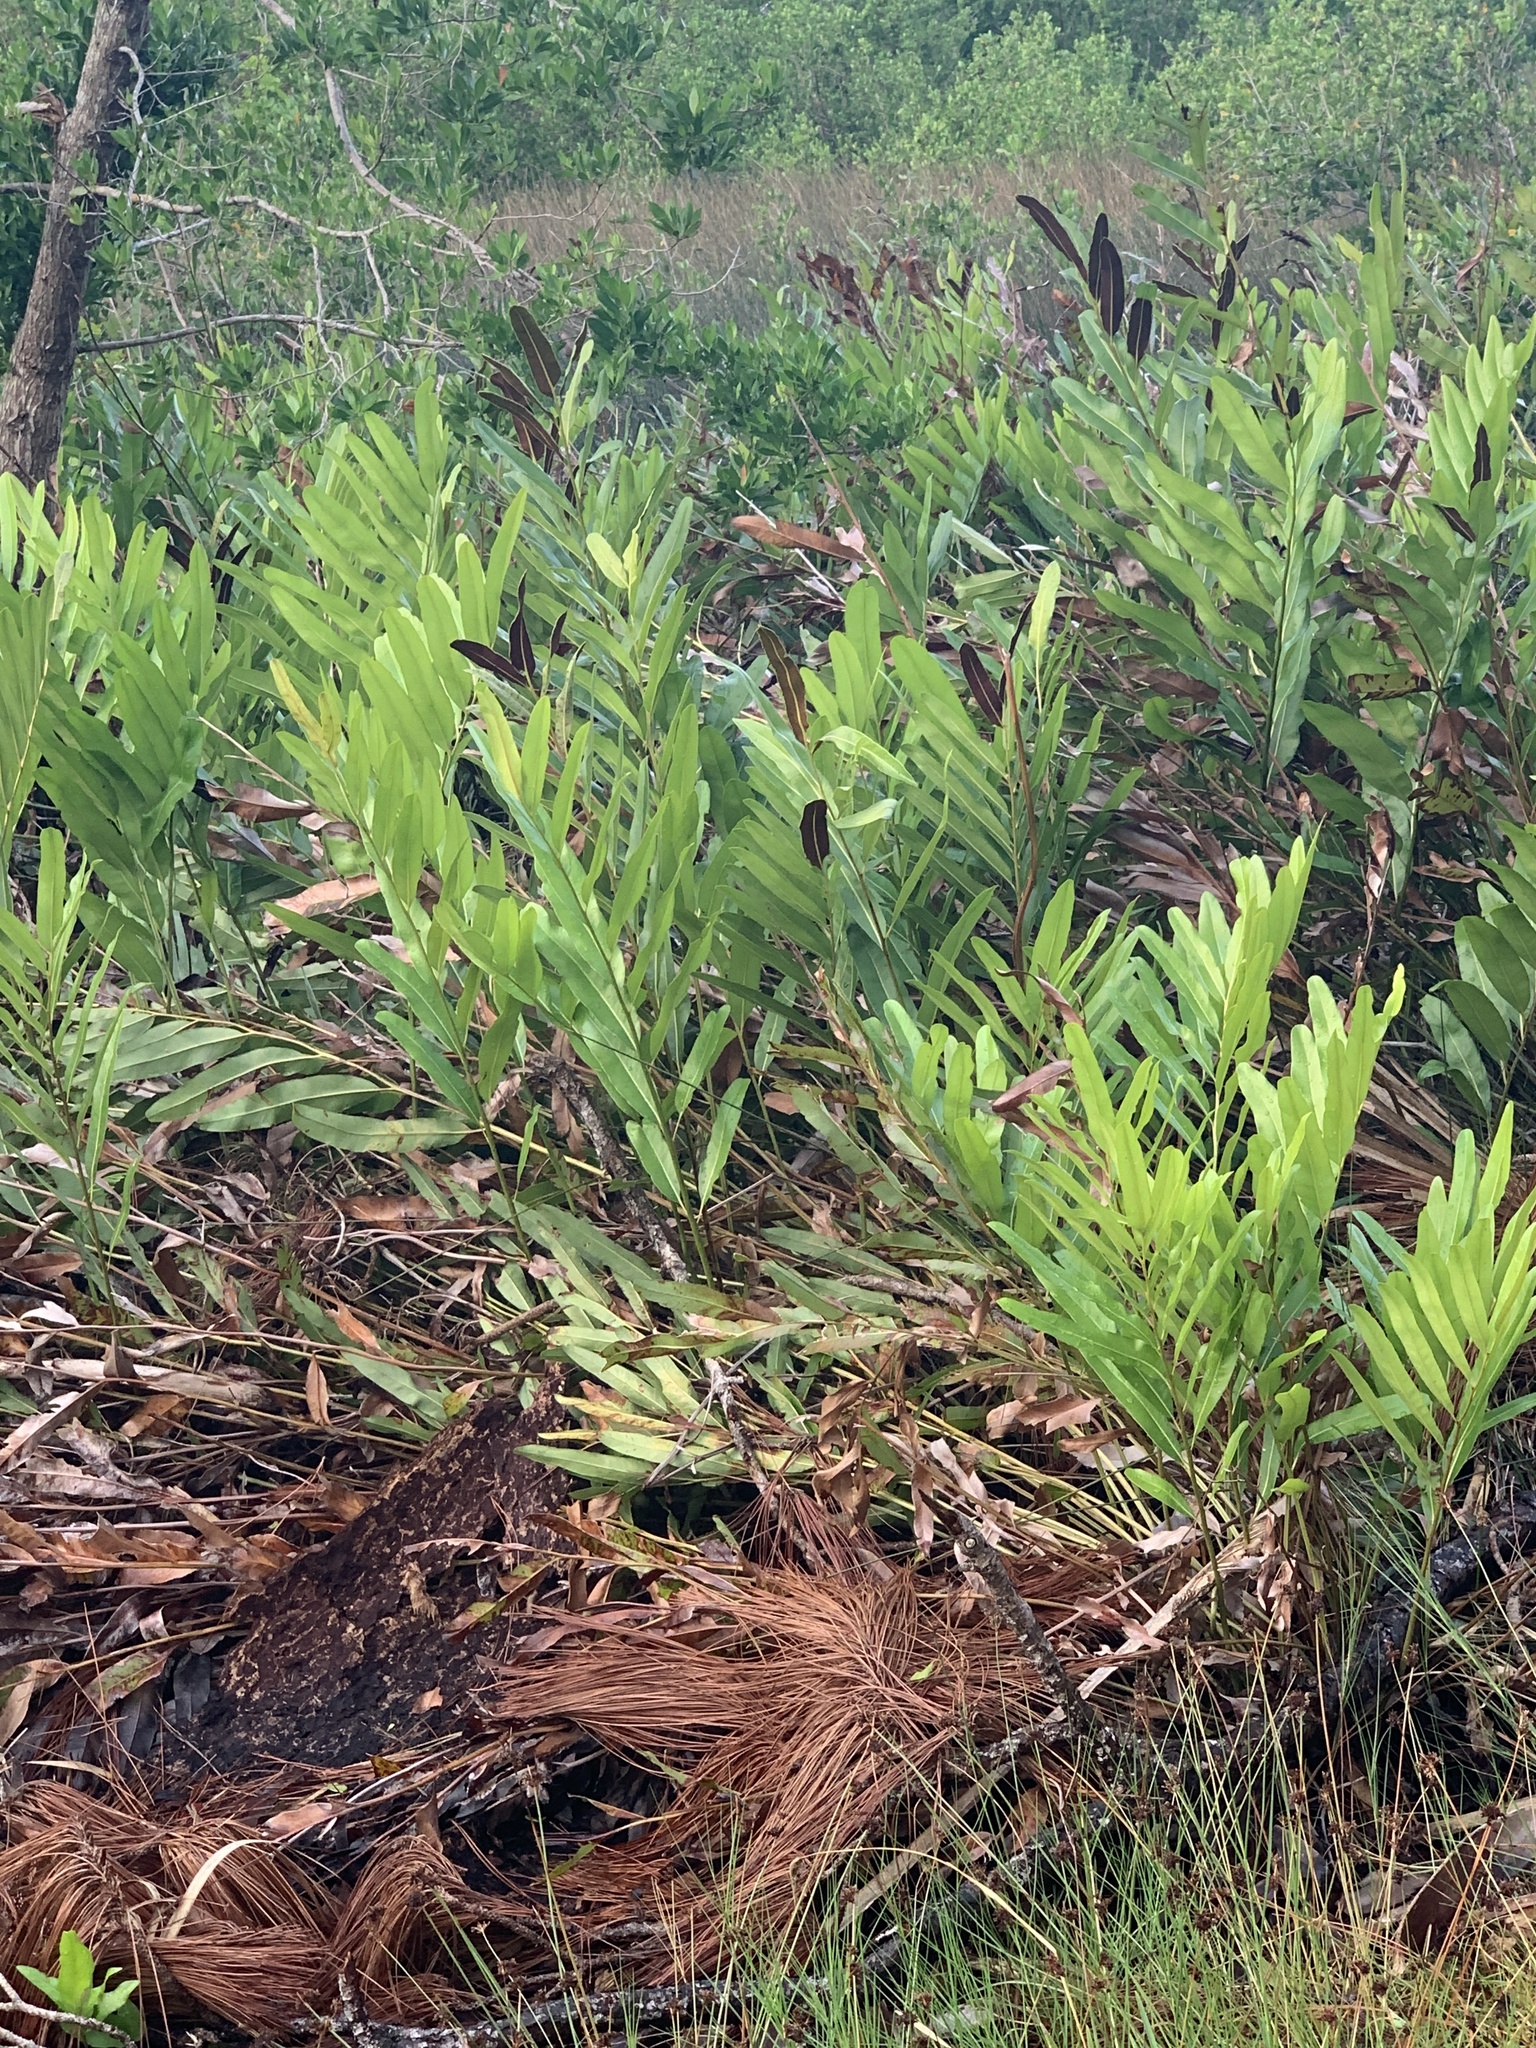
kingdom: Plantae
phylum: Tracheophyta
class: Polypodiopsida
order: Polypodiales
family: Pteridaceae
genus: Acrostichum
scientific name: Acrostichum aureum
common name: Leather fern
